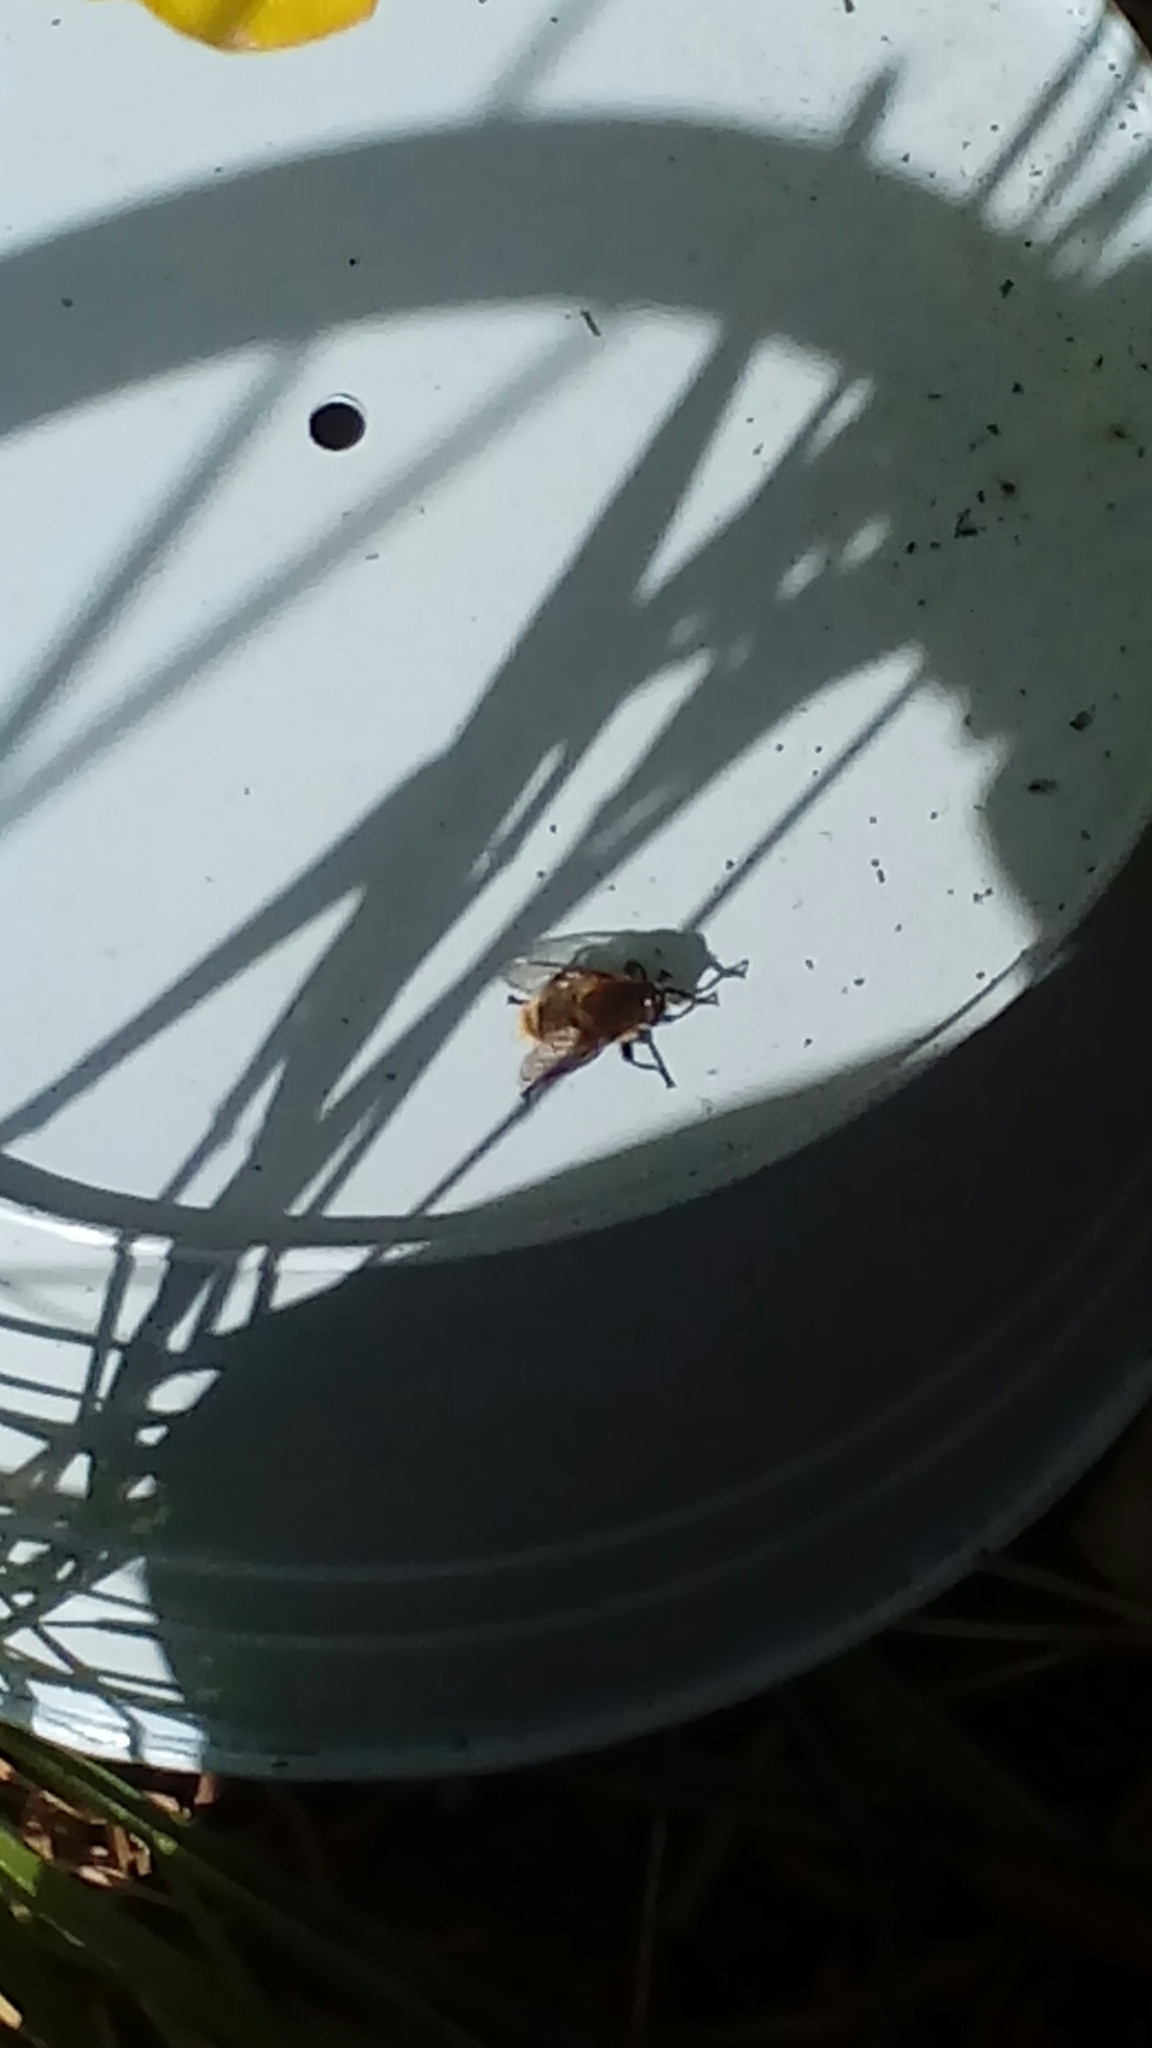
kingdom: Animalia
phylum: Arthropoda
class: Insecta
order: Diptera
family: Syrphidae
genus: Merodon
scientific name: Merodon equestris
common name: Greater bulb-fly
